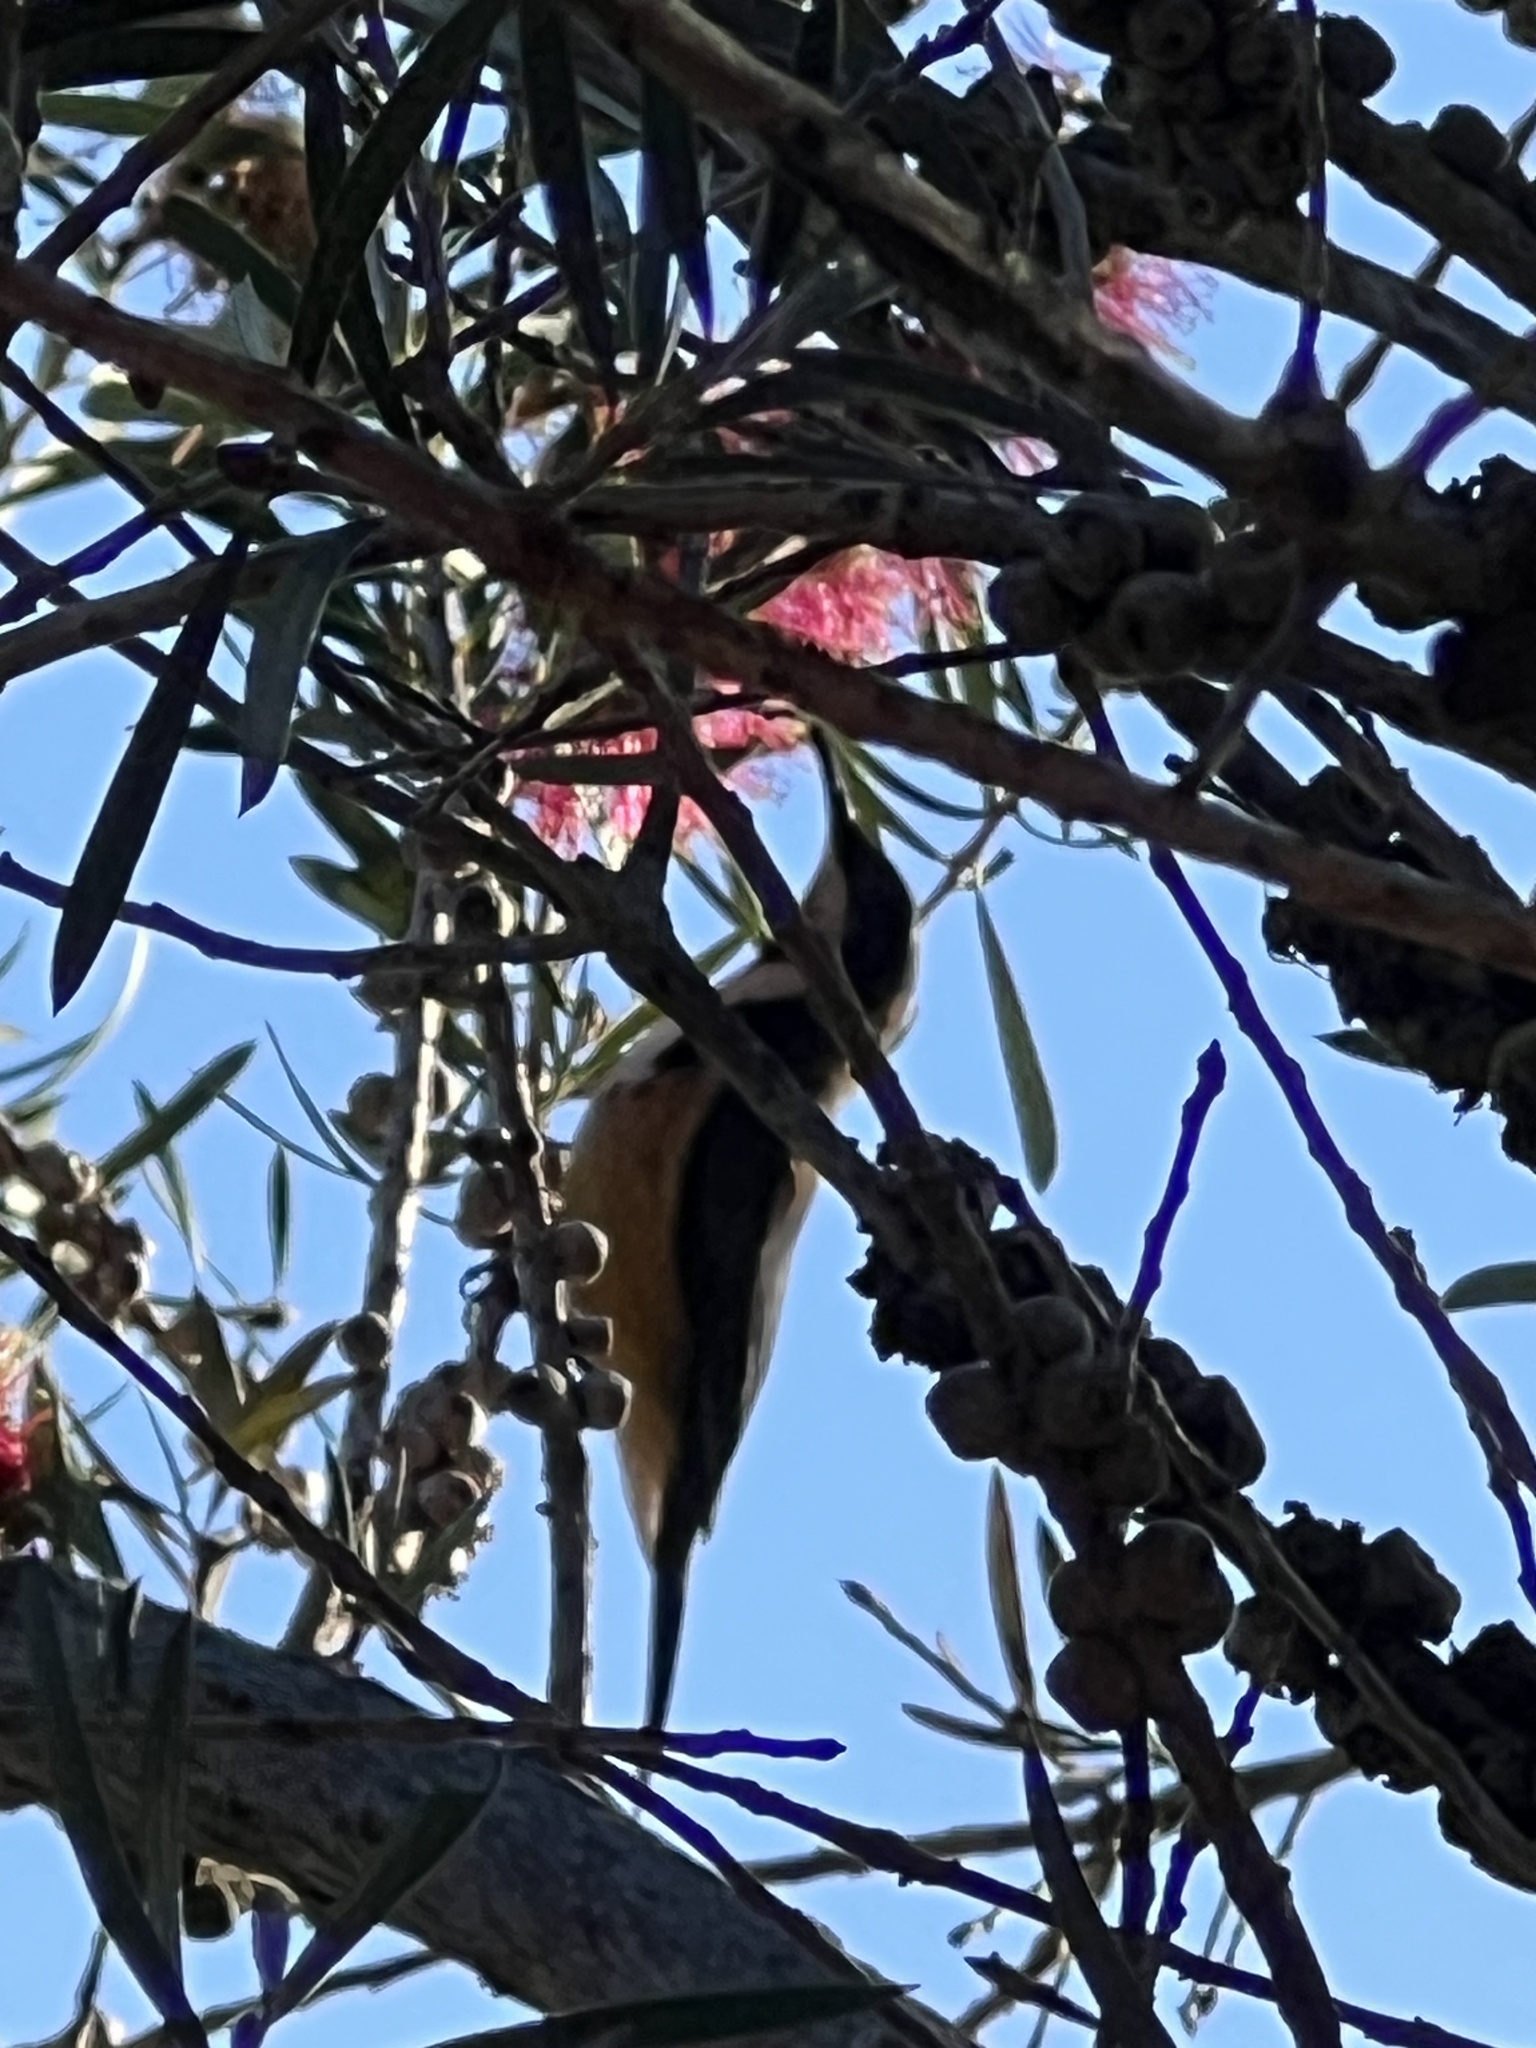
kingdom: Animalia
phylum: Chordata
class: Aves
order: Passeriformes
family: Meliphagidae
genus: Acanthorhynchus
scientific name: Acanthorhynchus tenuirostris
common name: Eastern spinebill
